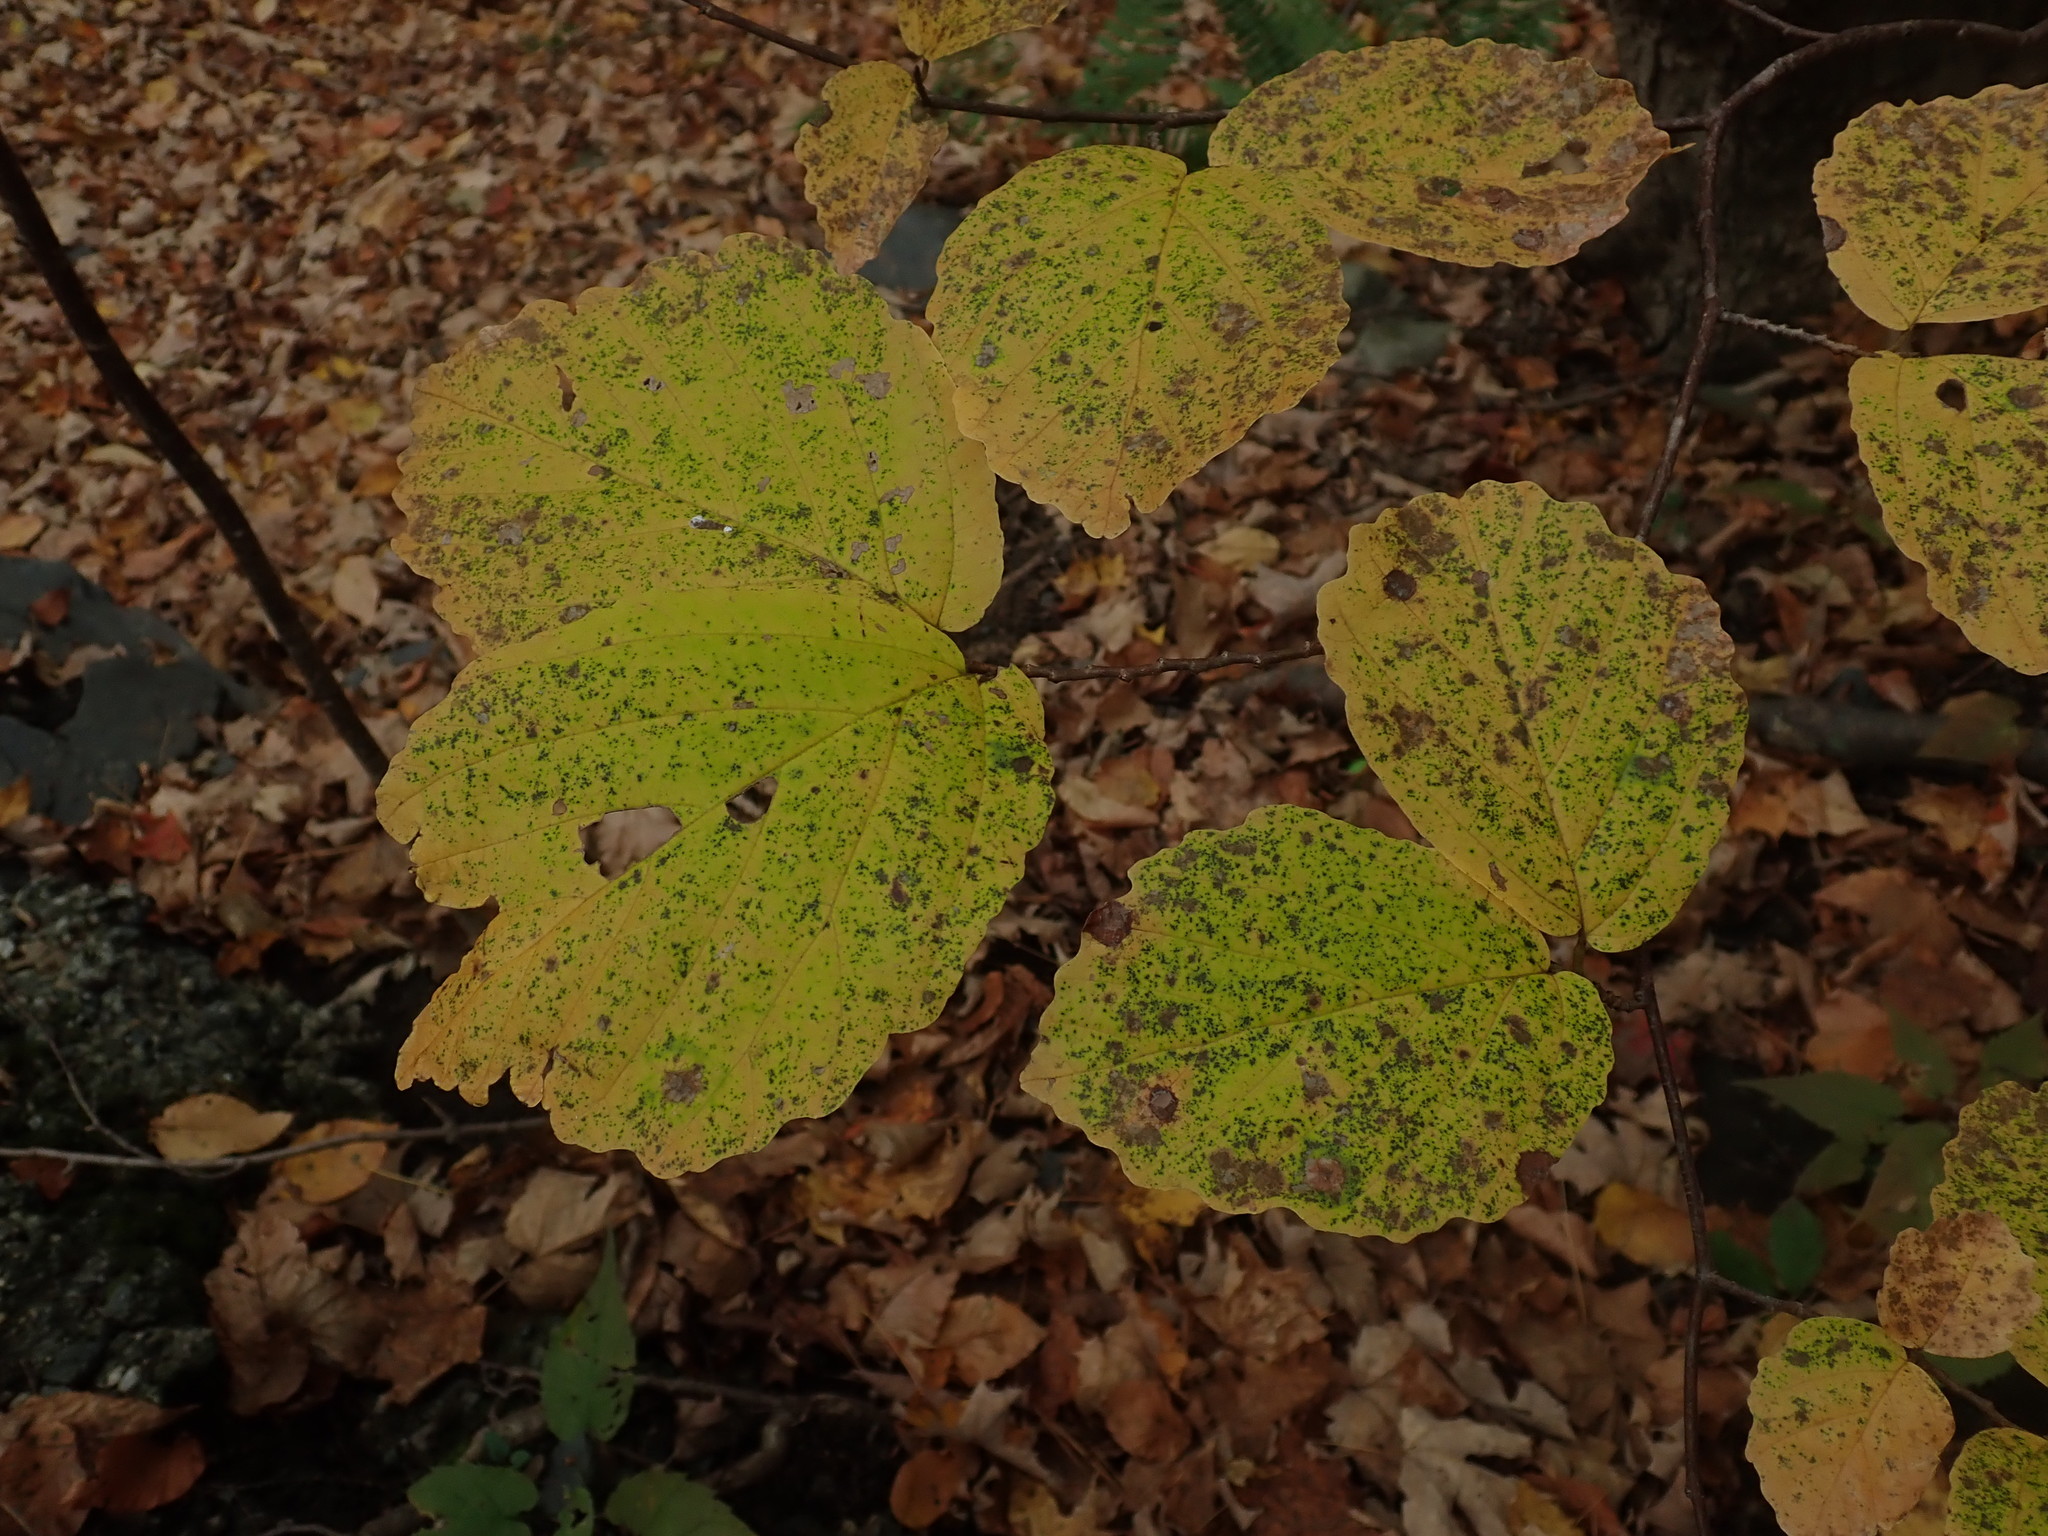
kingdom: Plantae
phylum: Tracheophyta
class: Magnoliopsida
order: Saxifragales
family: Hamamelidaceae
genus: Hamamelis
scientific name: Hamamelis virginiana
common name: Witch-hazel
